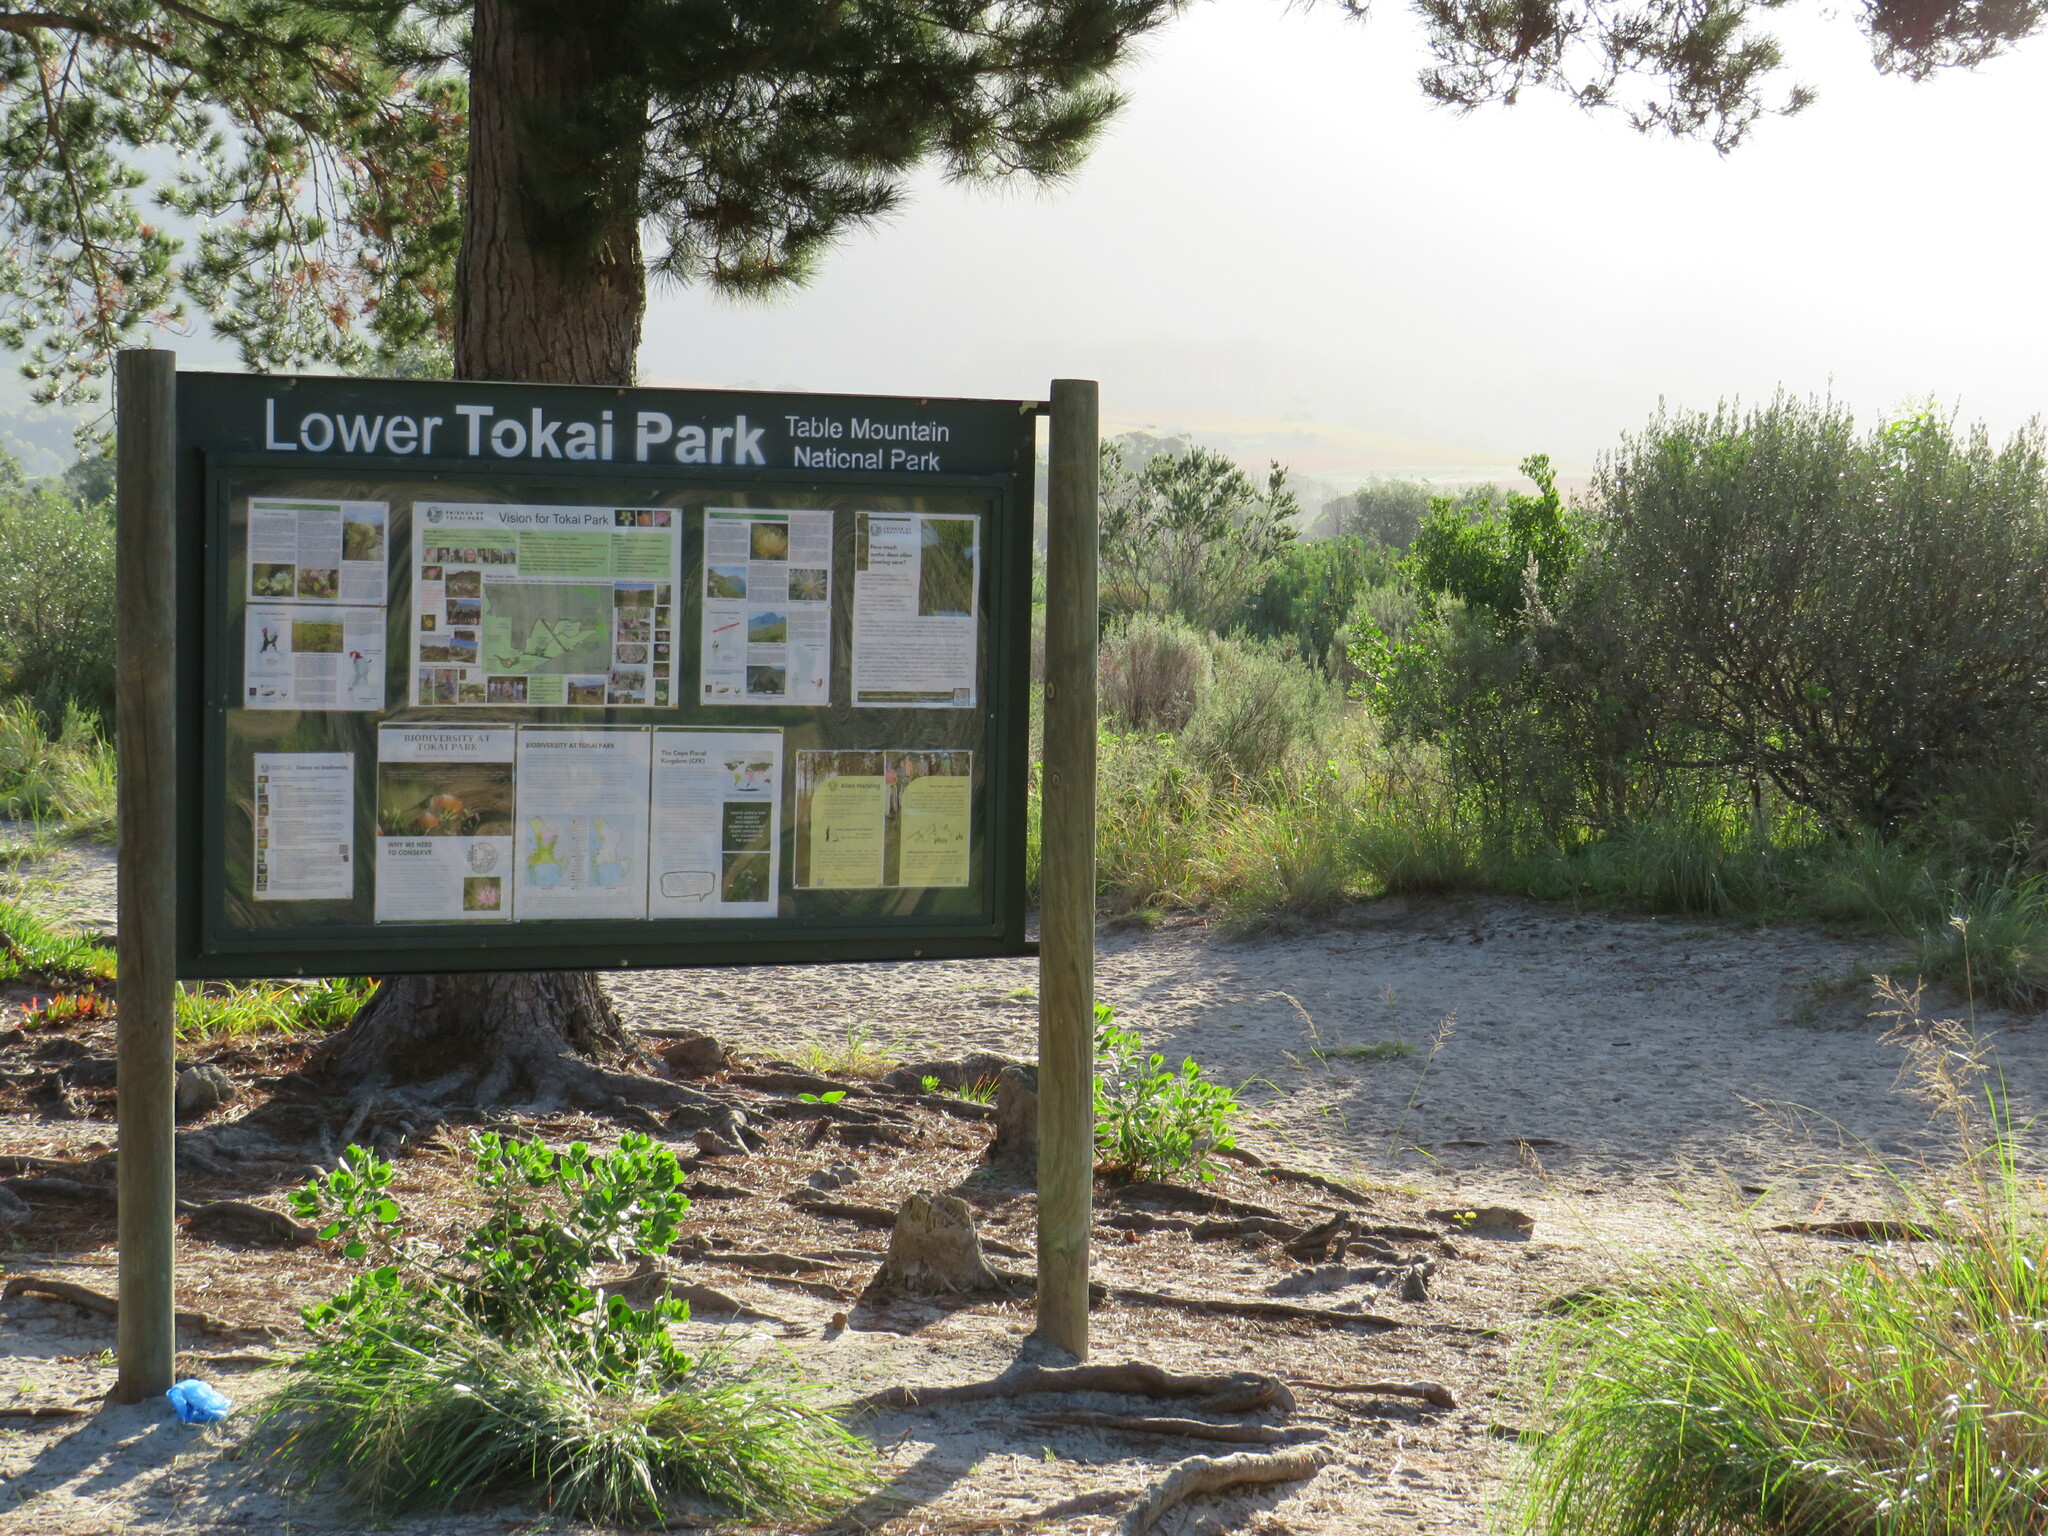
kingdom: Plantae
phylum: Tracheophyta
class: Liliopsida
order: Poales
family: Poaceae
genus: Eragrostis
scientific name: Eragrostis curvula
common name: African love-grass
